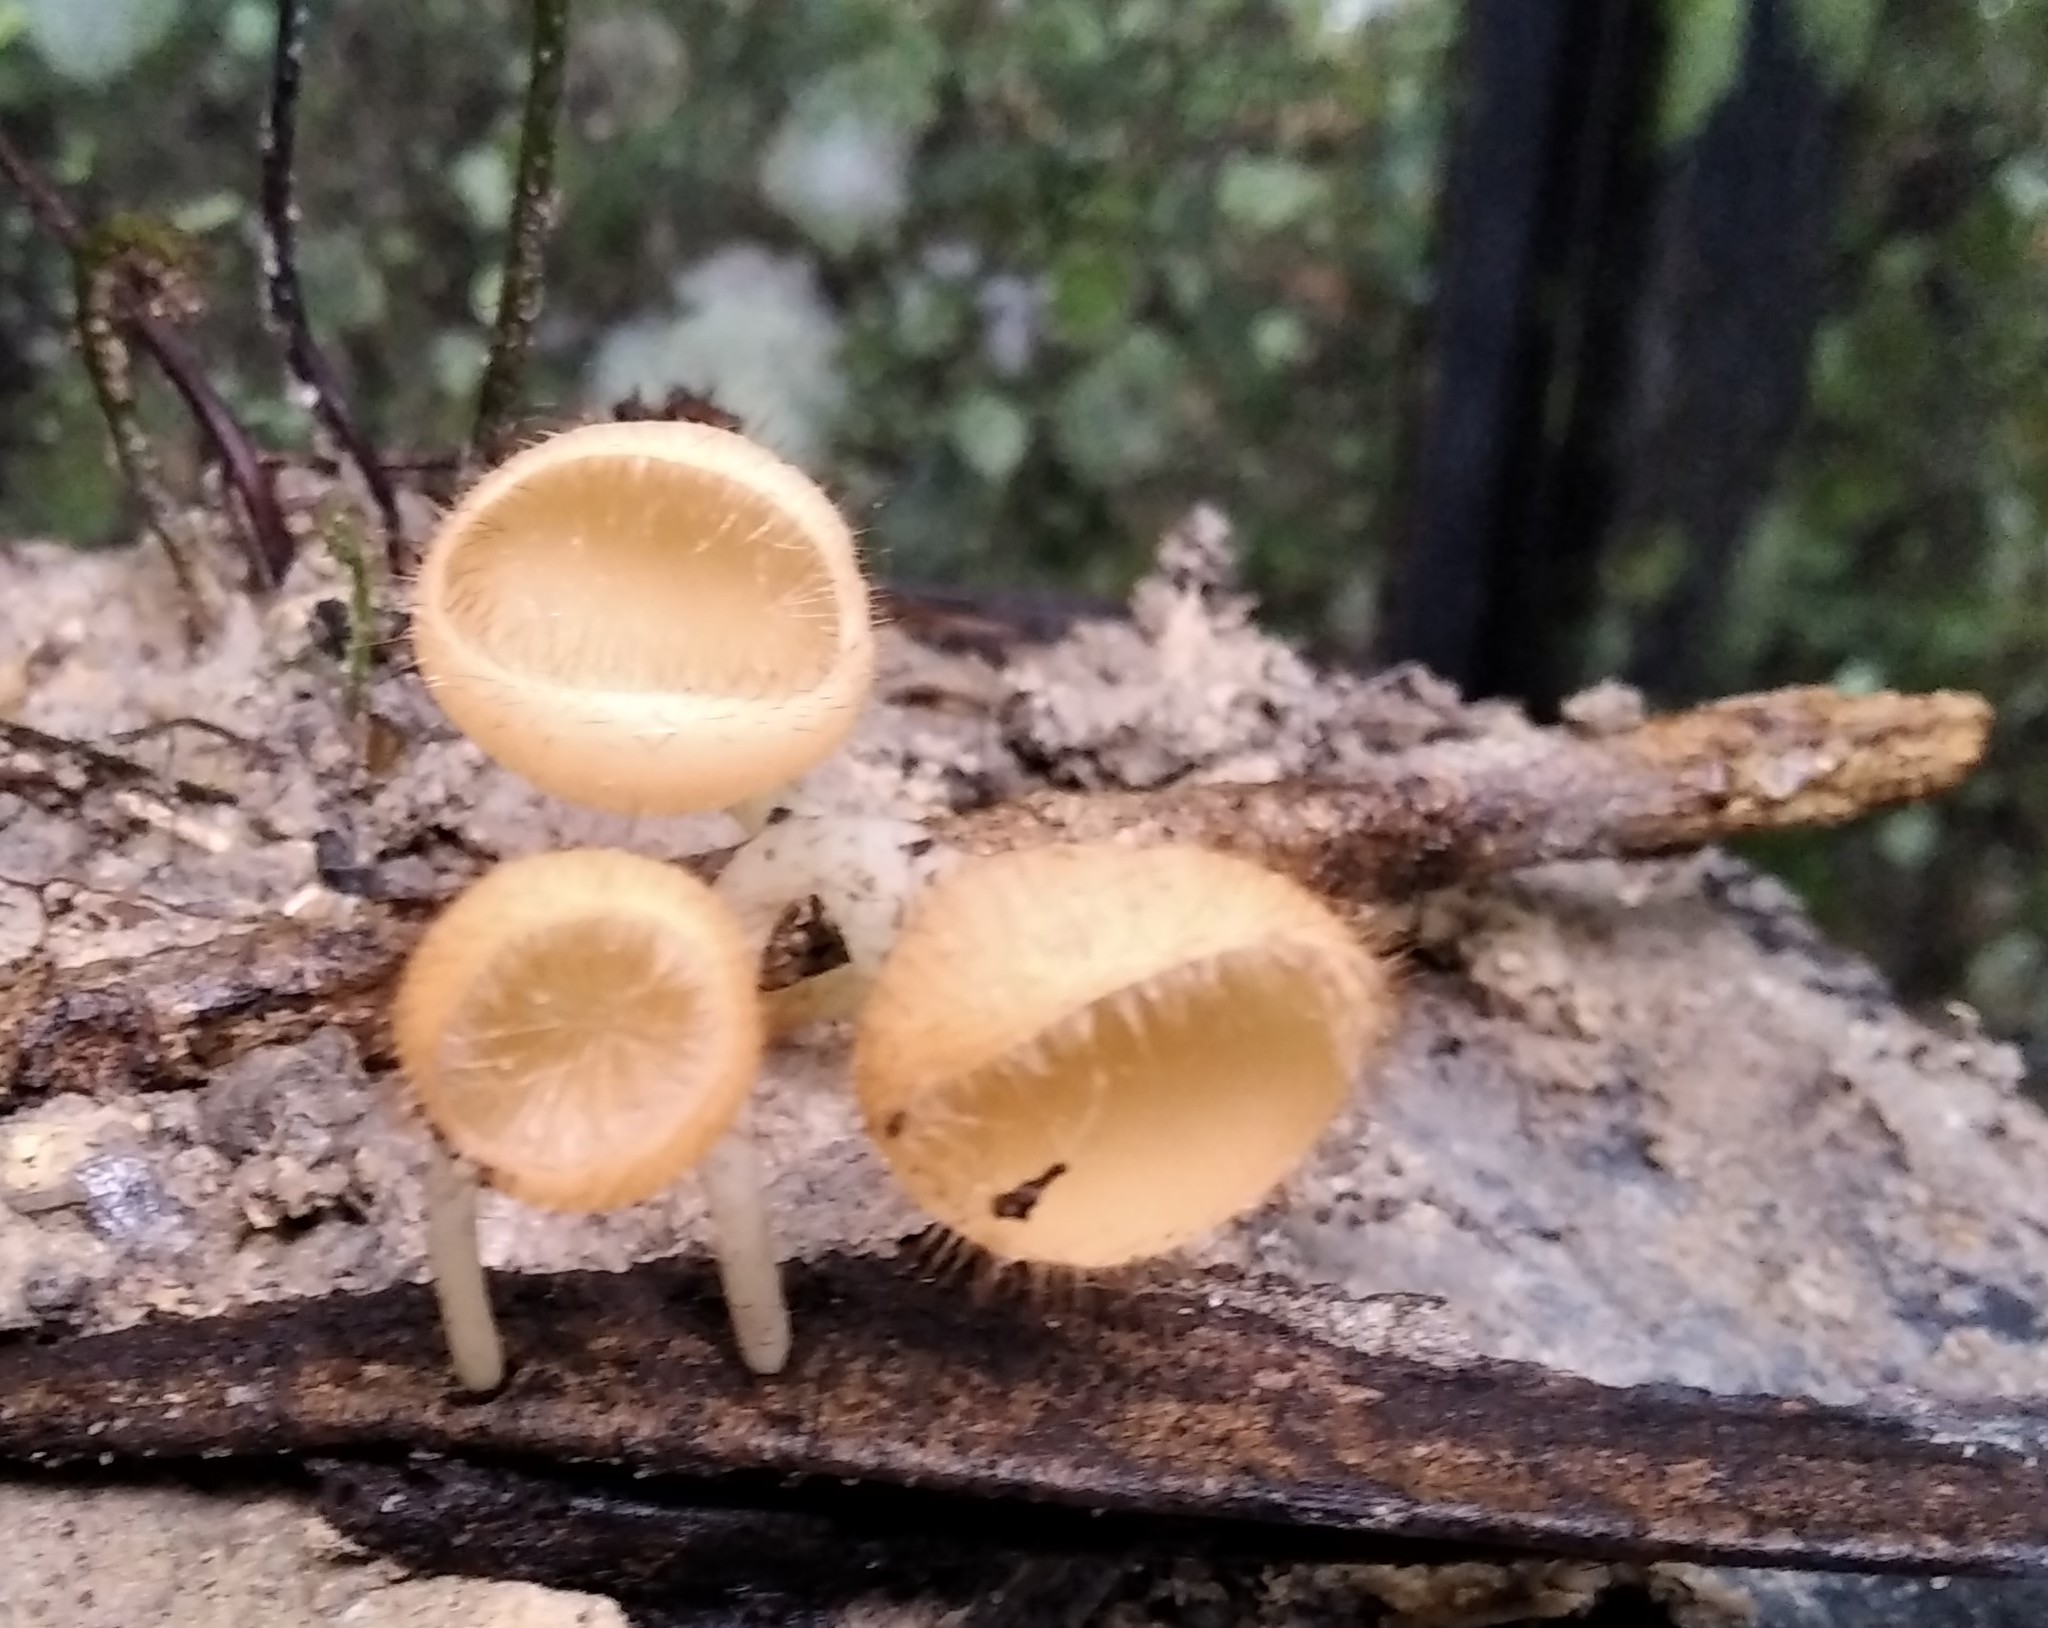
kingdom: Fungi
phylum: Ascomycota
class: Pezizomycetes
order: Pezizales
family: Sarcoscyphaceae
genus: Cookeina
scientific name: Cookeina tricholoma
